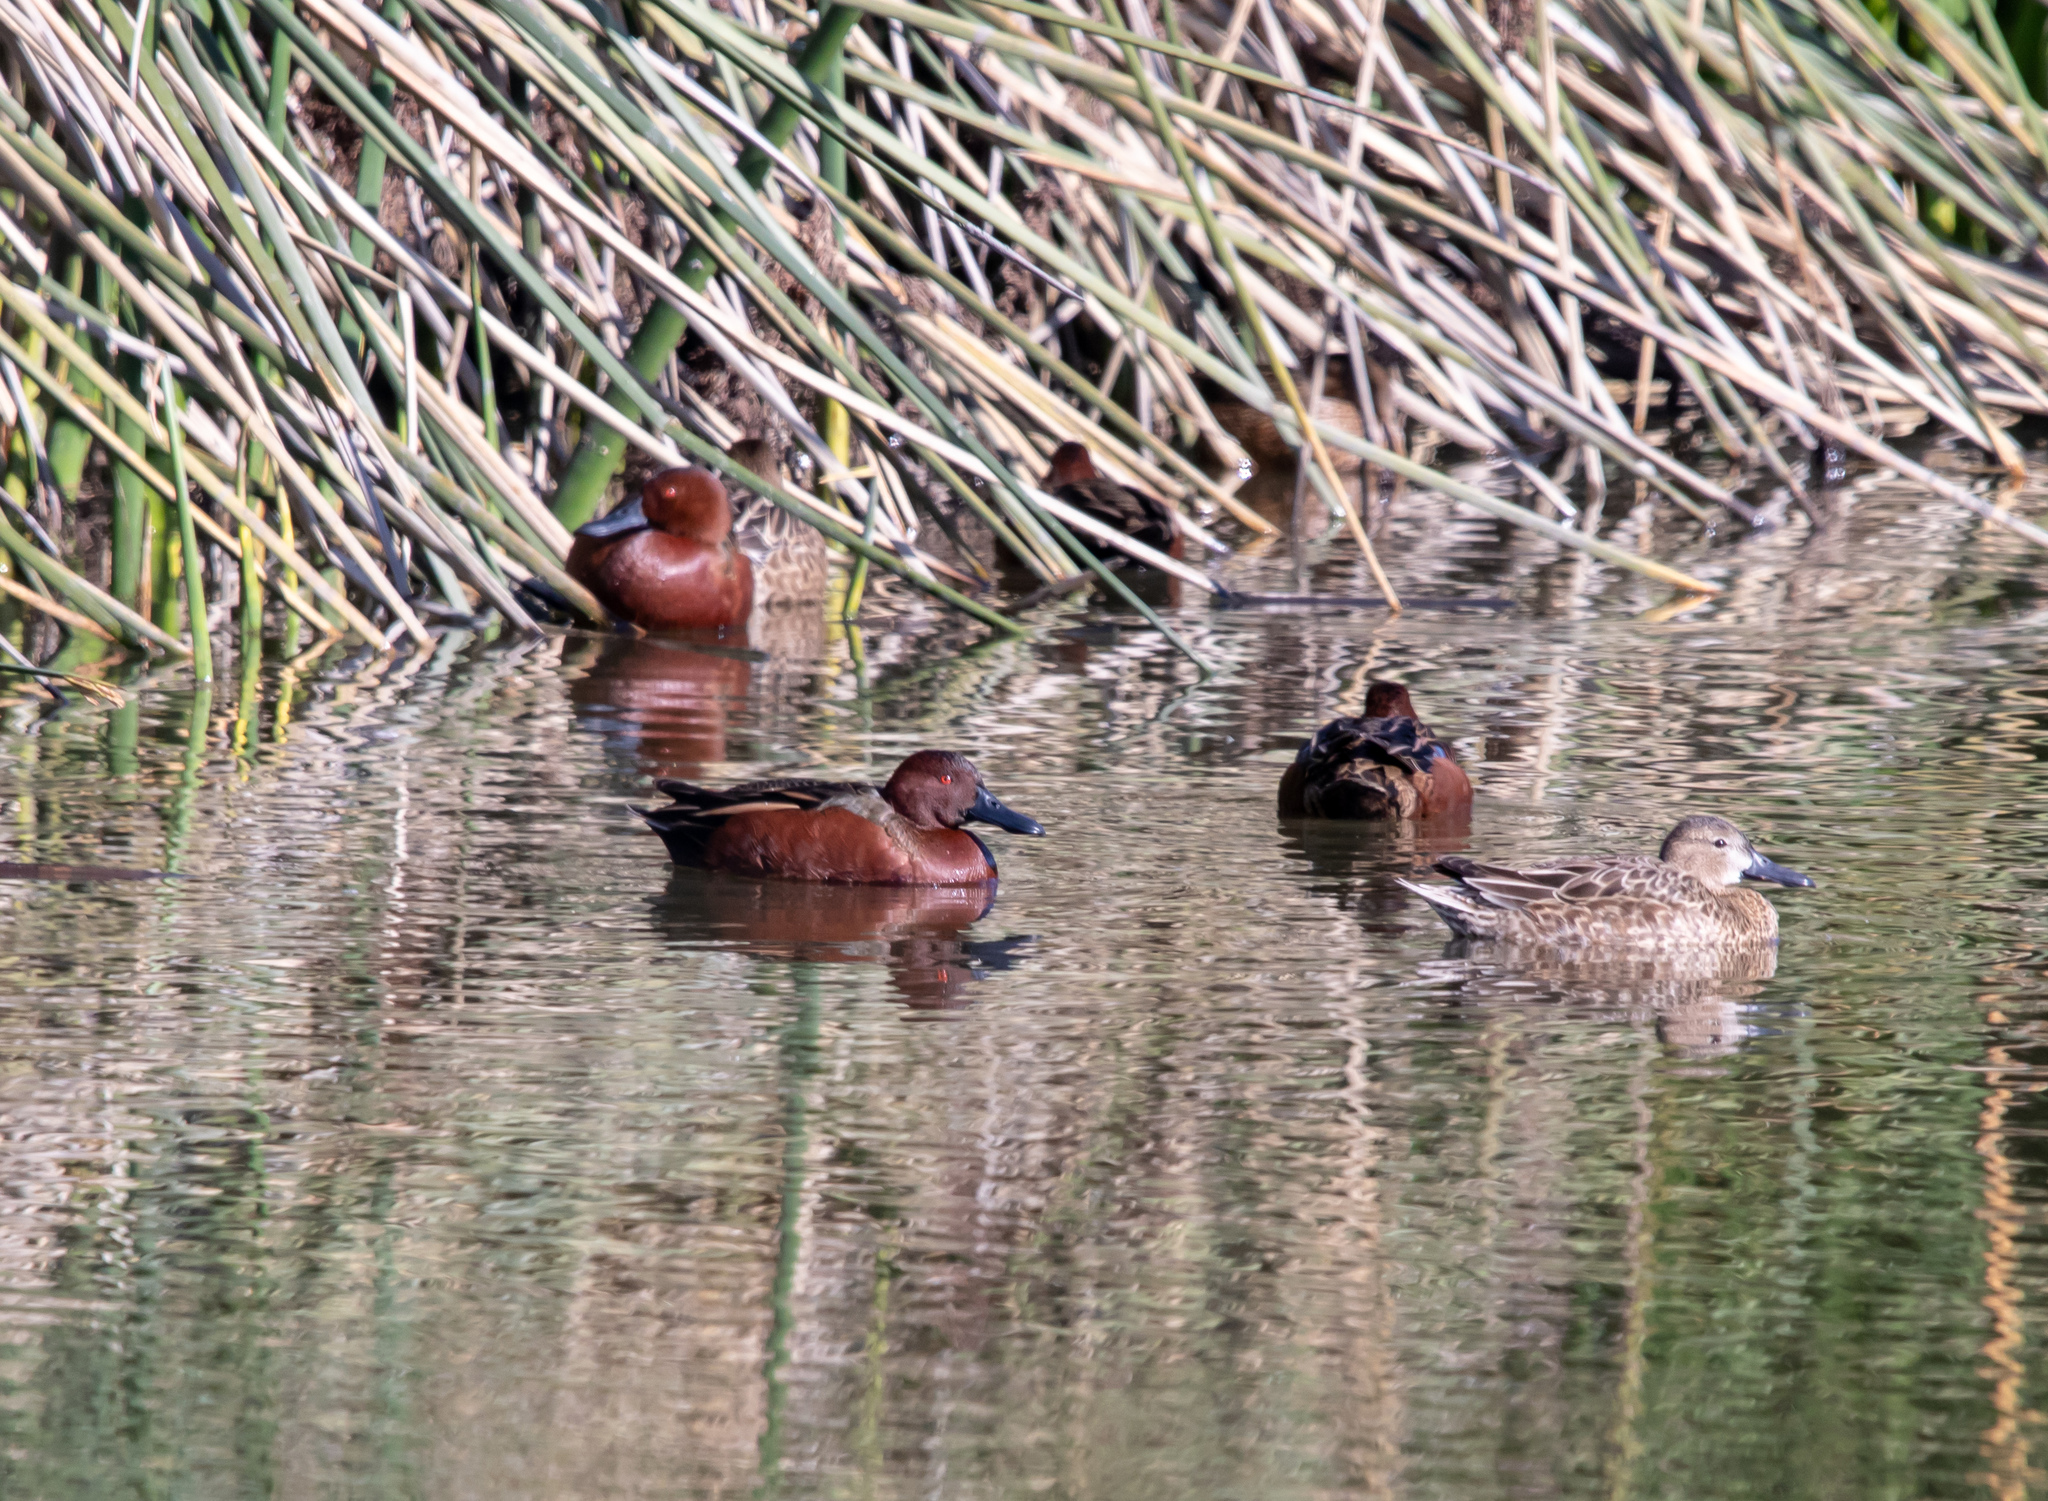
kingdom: Animalia
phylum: Chordata
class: Aves
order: Anseriformes
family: Anatidae
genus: Spatula
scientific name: Spatula cyanoptera
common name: Cinnamon teal
